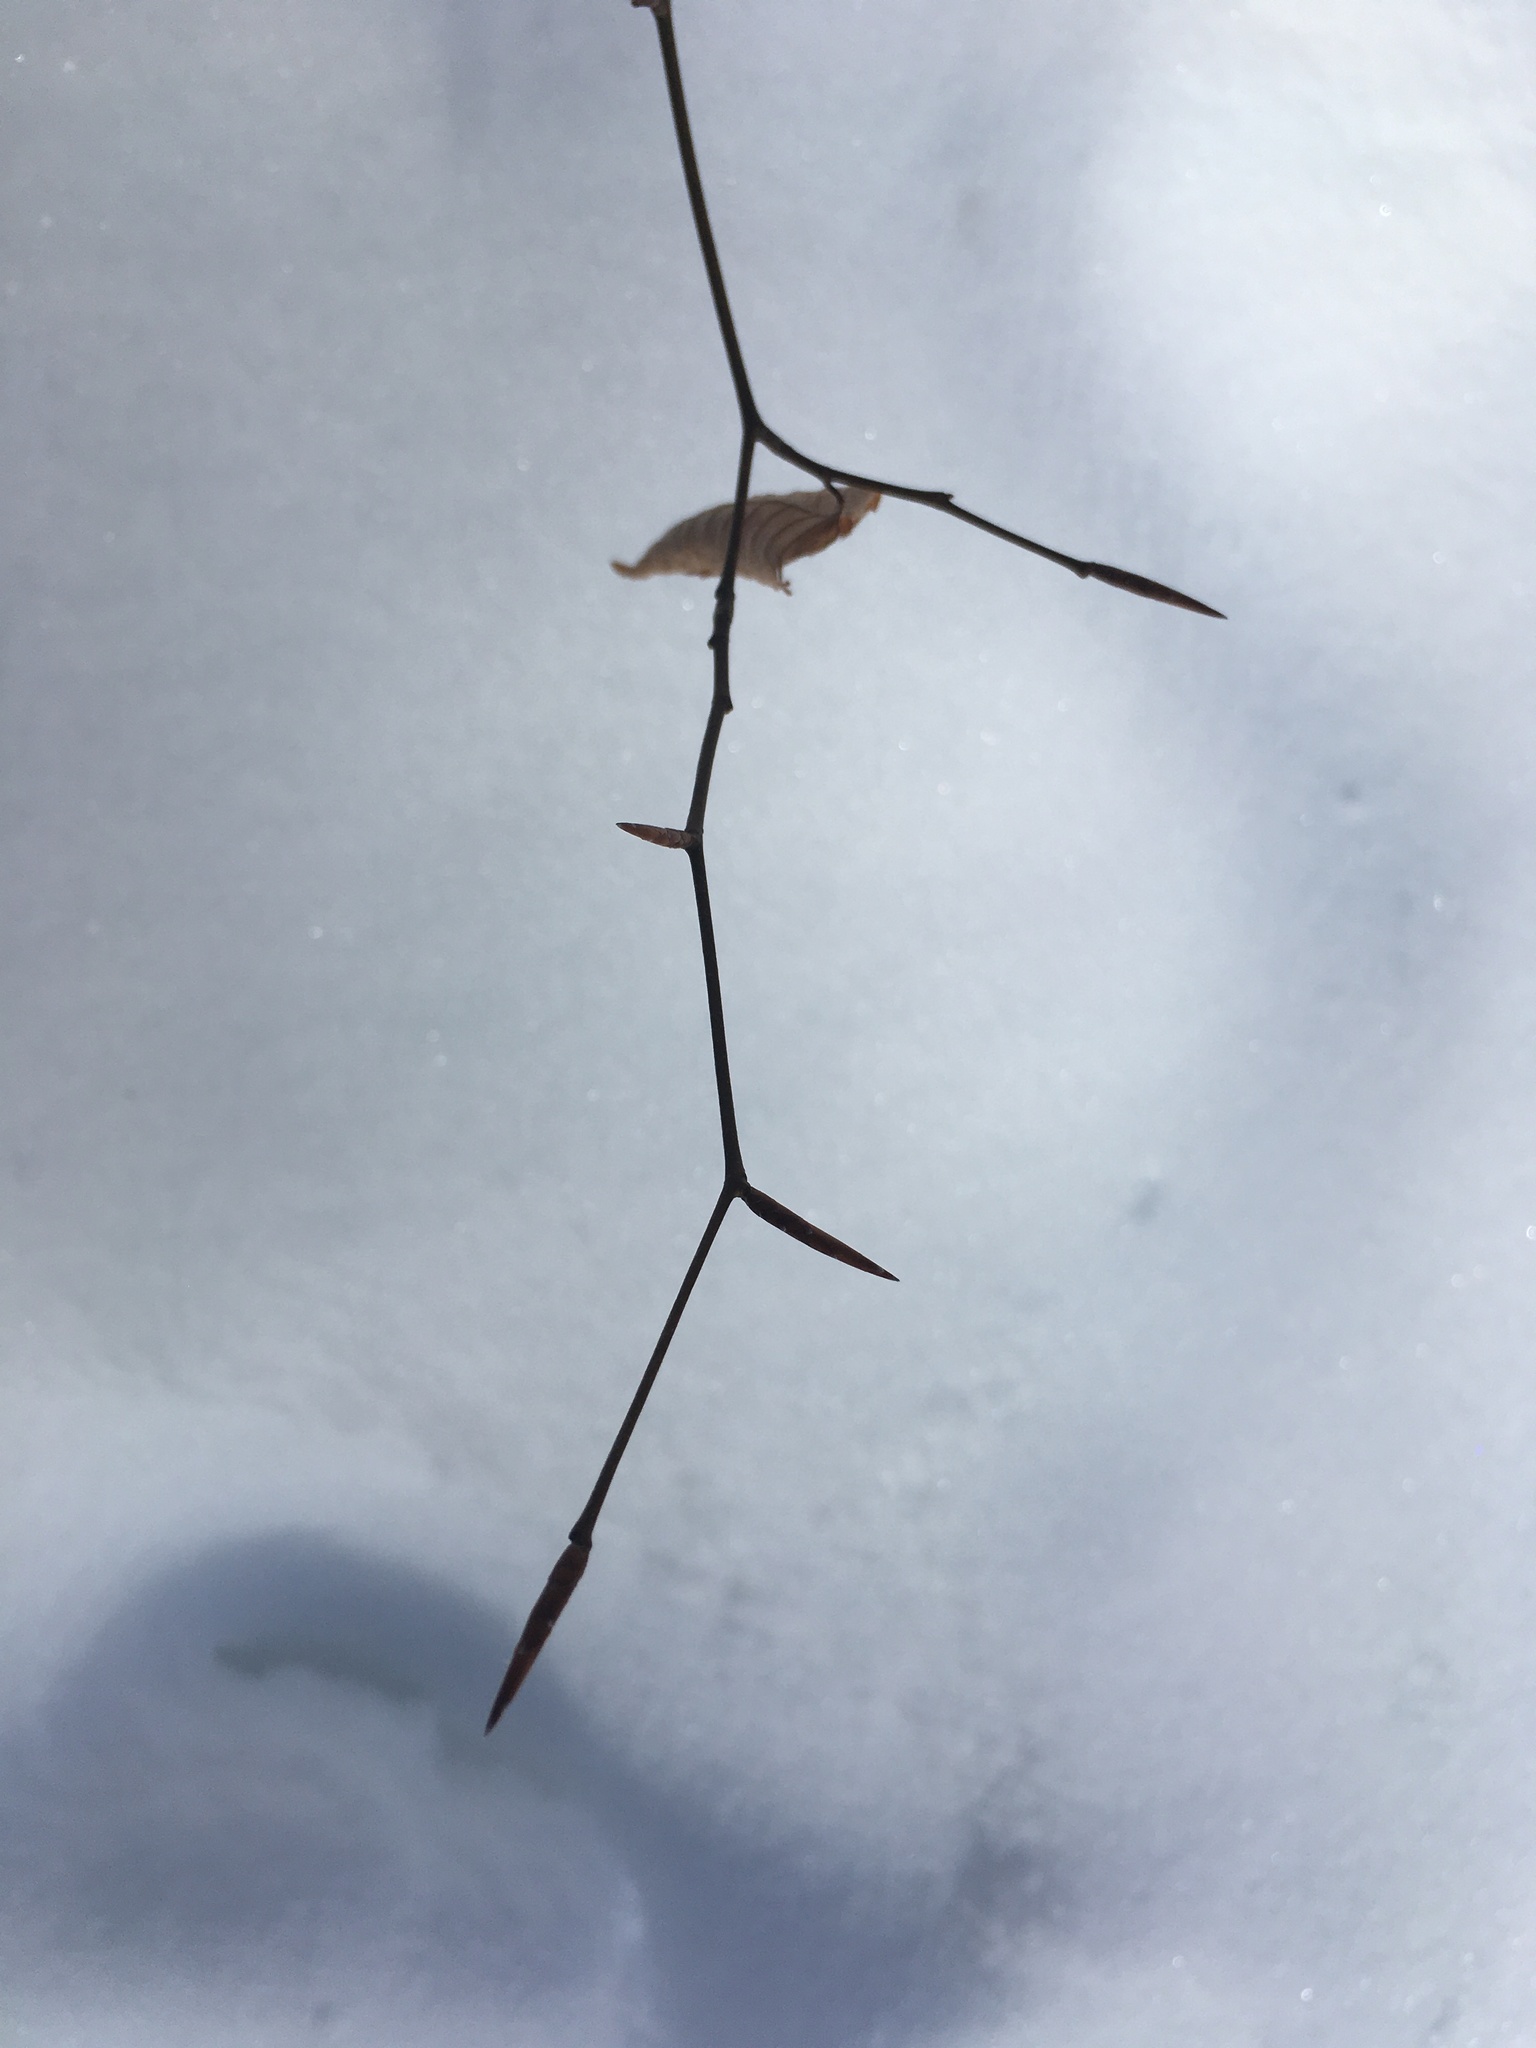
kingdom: Plantae
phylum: Tracheophyta
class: Magnoliopsida
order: Fagales
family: Fagaceae
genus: Fagus
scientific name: Fagus grandifolia
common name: American beech
